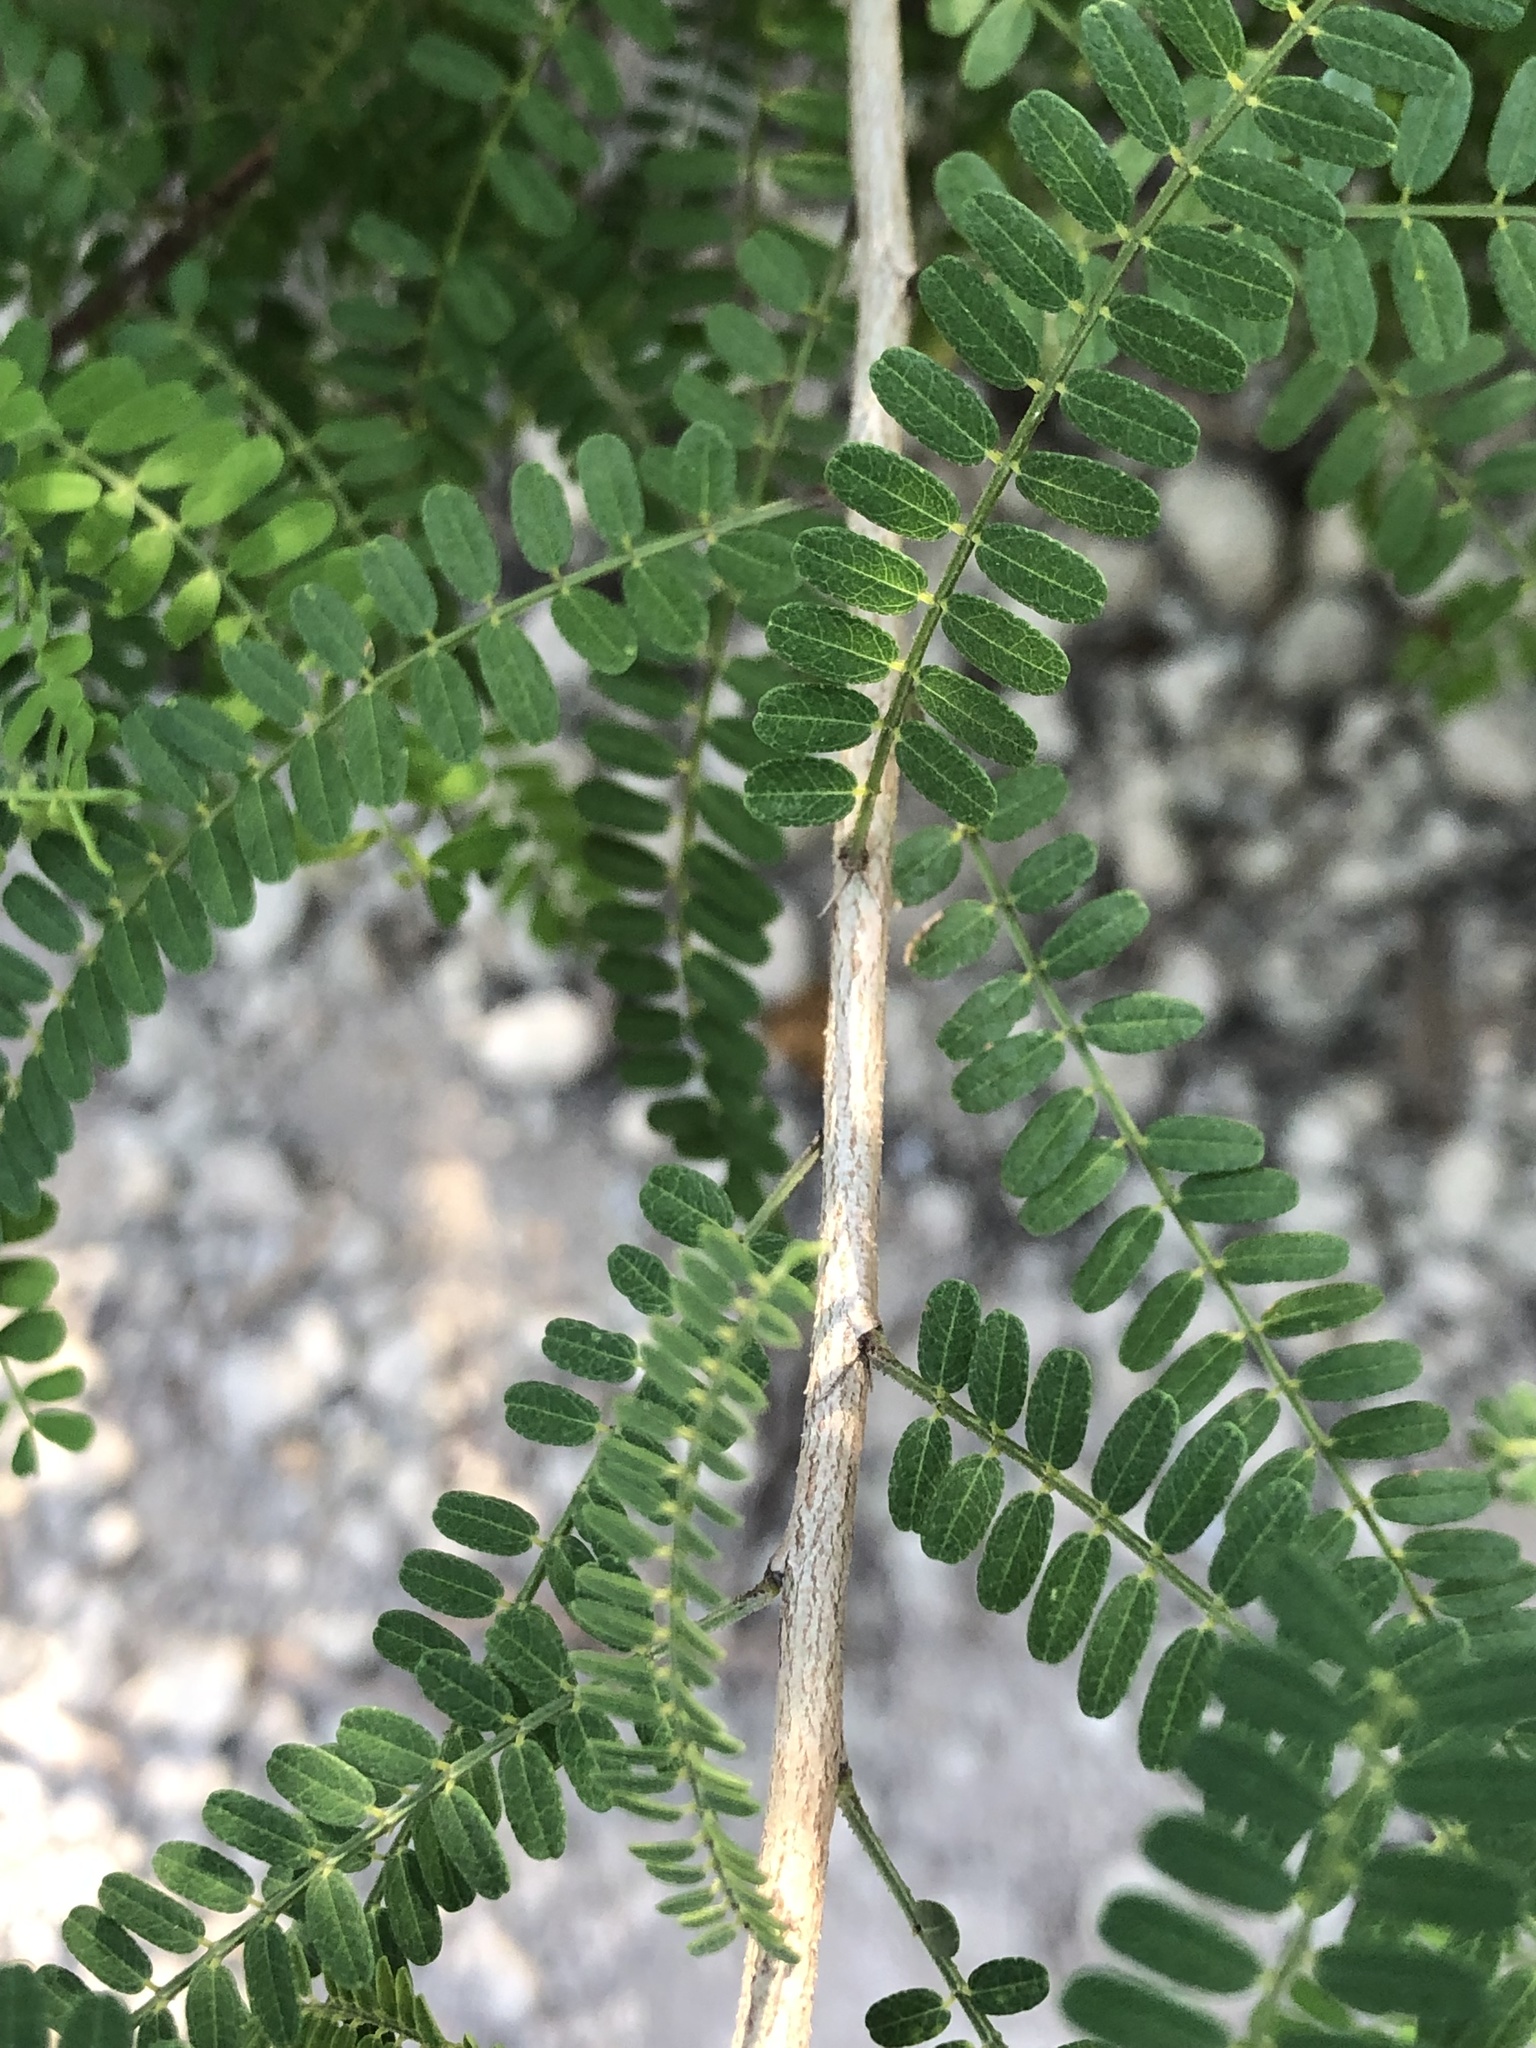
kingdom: Plantae
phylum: Tracheophyta
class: Magnoliopsida
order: Fabales
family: Fabaceae
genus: Eysenhardtia
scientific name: Eysenhardtia texana
